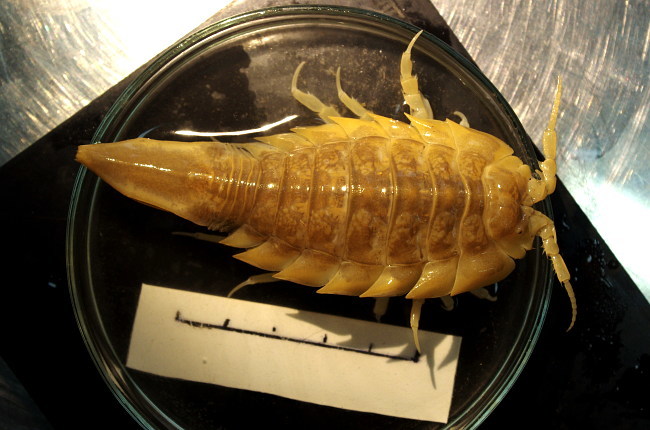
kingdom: Animalia
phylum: Arthropoda
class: Malacostraca
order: Isopoda
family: Chaetiliidae
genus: Saduria
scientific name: Saduria sibirica
